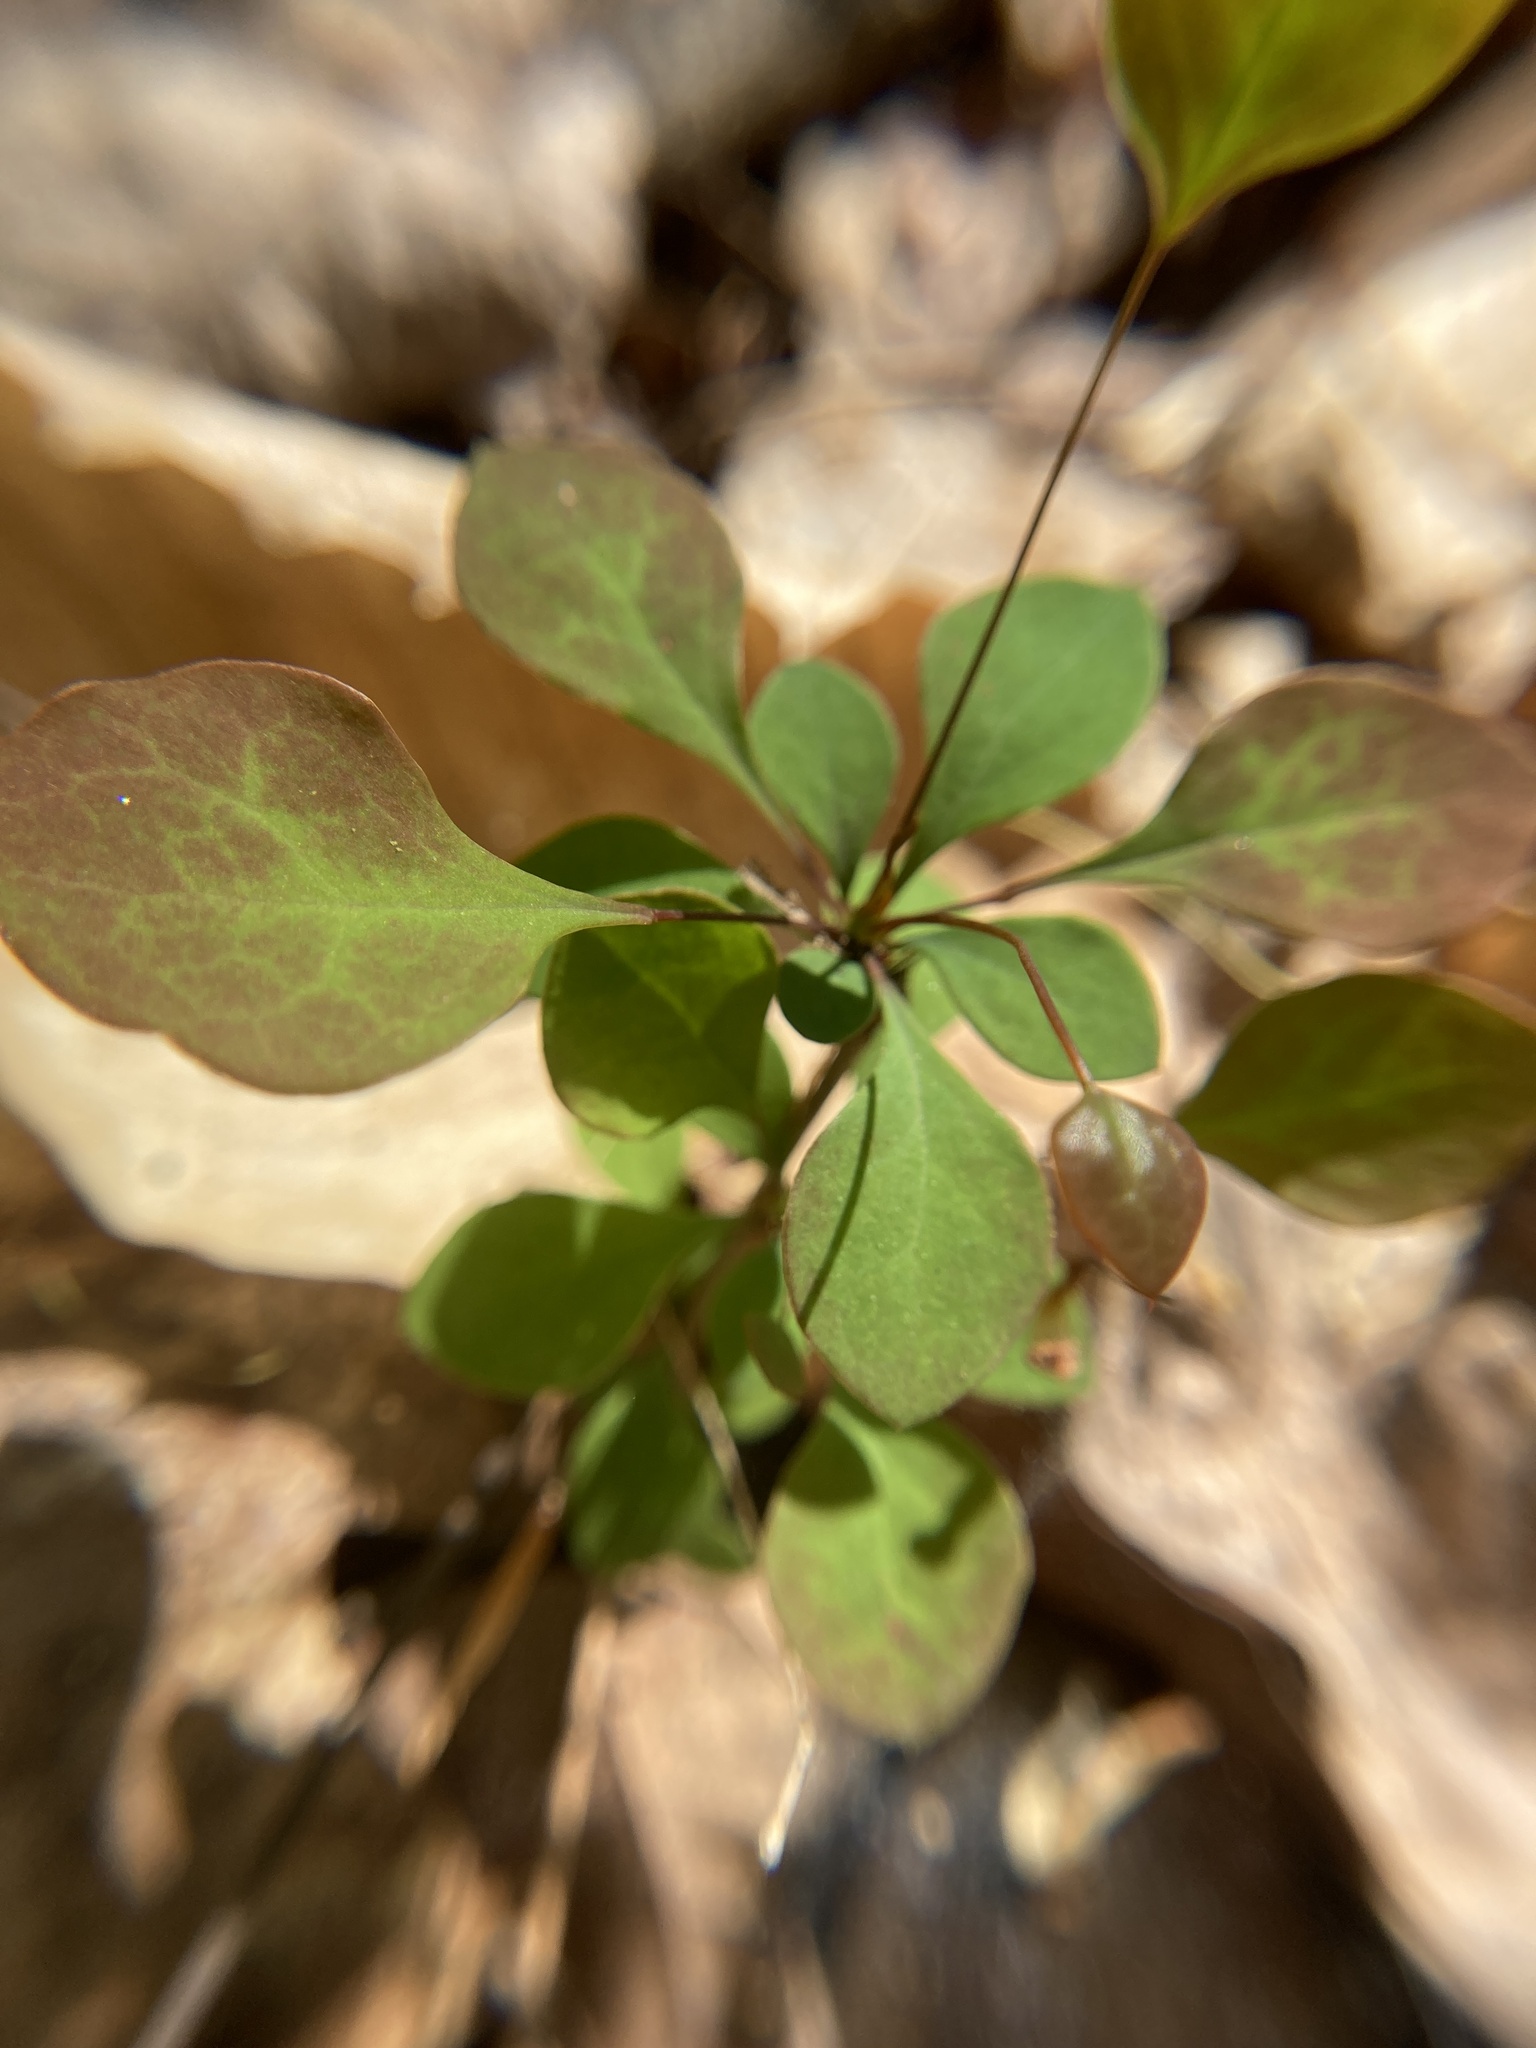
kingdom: Plantae
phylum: Tracheophyta
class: Magnoliopsida
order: Ranunculales
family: Berberidaceae
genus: Berberis
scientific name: Berberis thunbergii
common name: Japanese barberry
